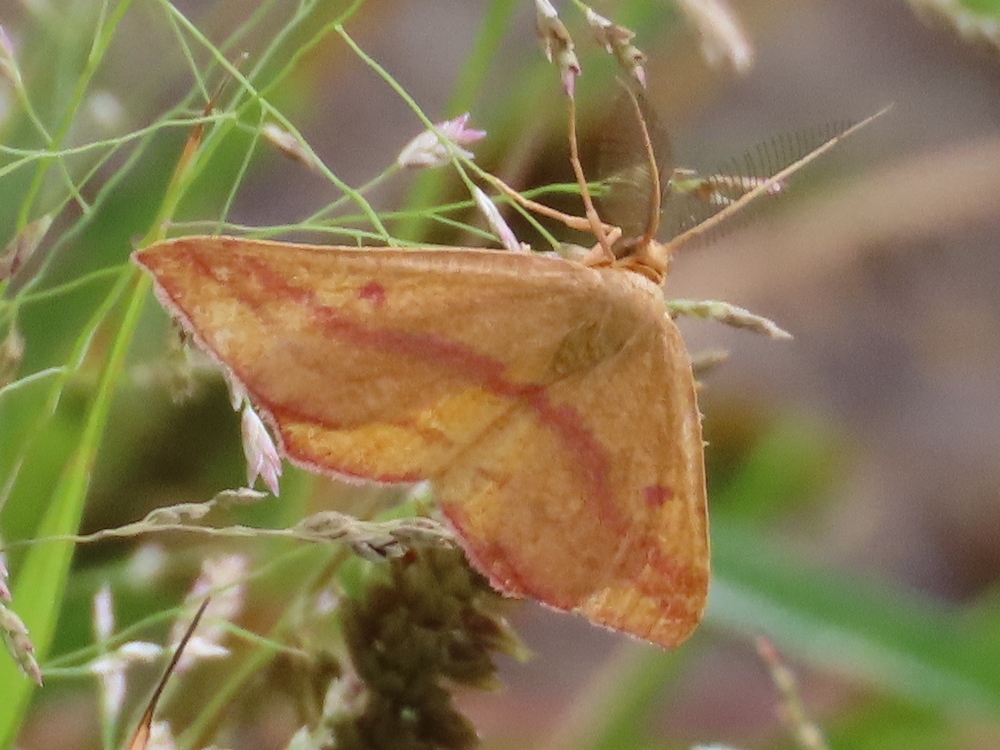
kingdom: Animalia
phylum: Arthropoda
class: Insecta
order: Lepidoptera
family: Geometridae
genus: Haematopis
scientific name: Haematopis grataria
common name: Chickweed geometer
